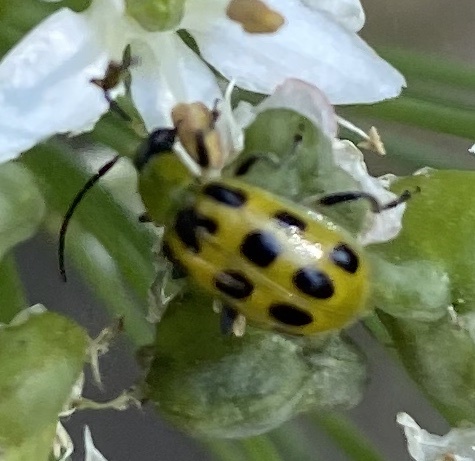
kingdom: Animalia
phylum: Arthropoda
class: Insecta
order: Coleoptera
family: Chrysomelidae
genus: Diabrotica
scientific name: Diabrotica undecimpunctata
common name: Spotted cucumber beetle
